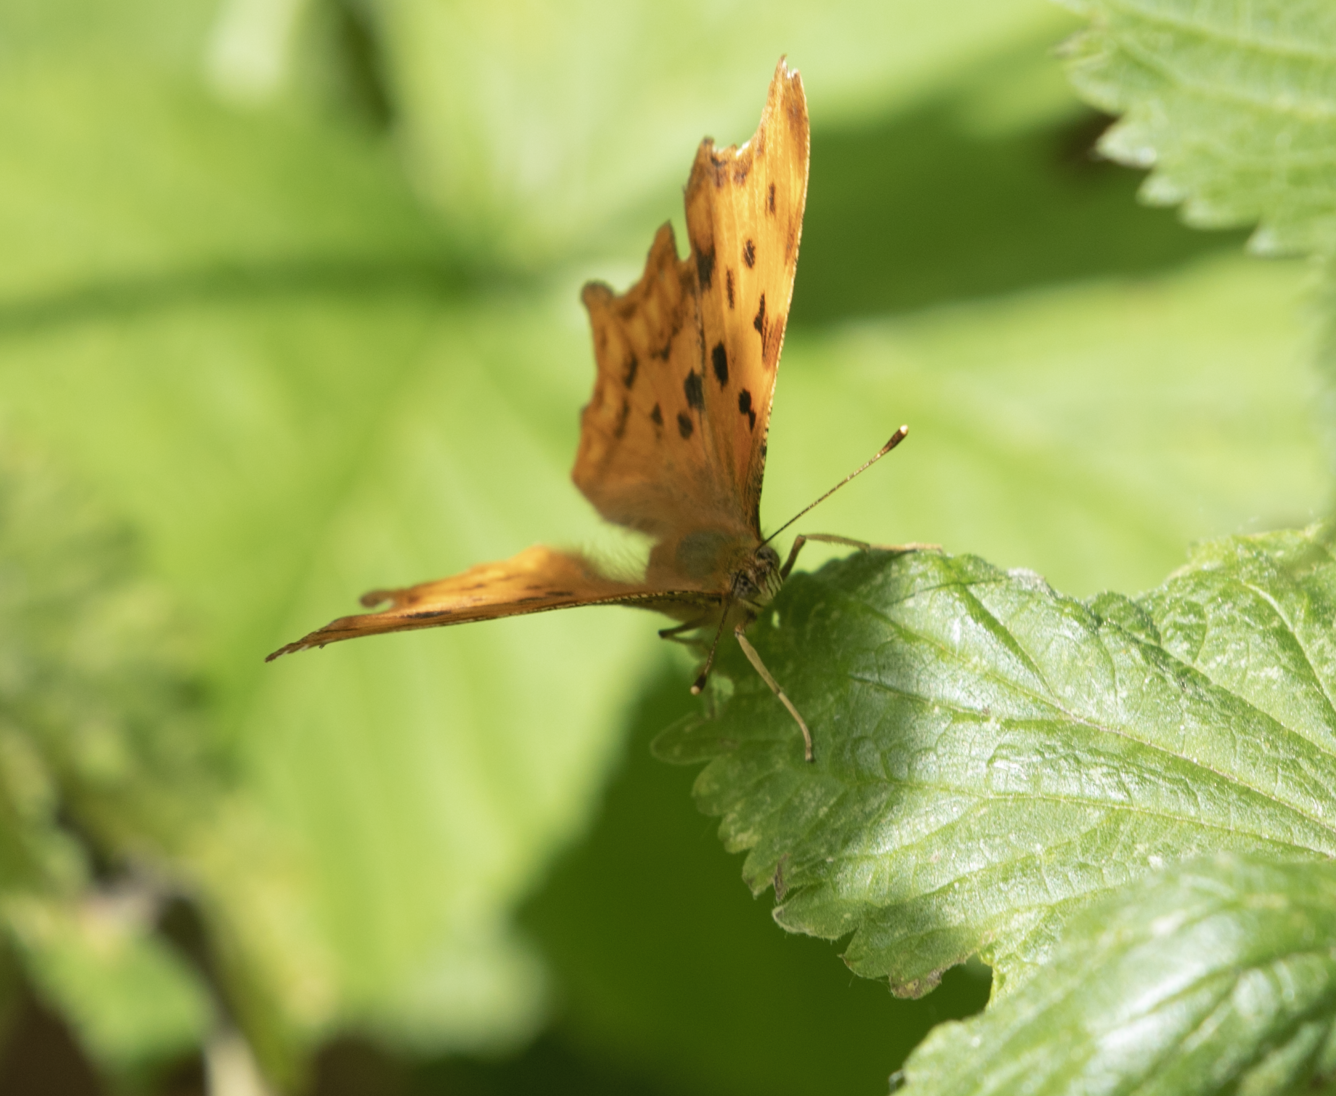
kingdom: Animalia
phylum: Arthropoda
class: Insecta
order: Lepidoptera
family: Nymphalidae
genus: Polygonia
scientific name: Polygonia c-album
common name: Comma
